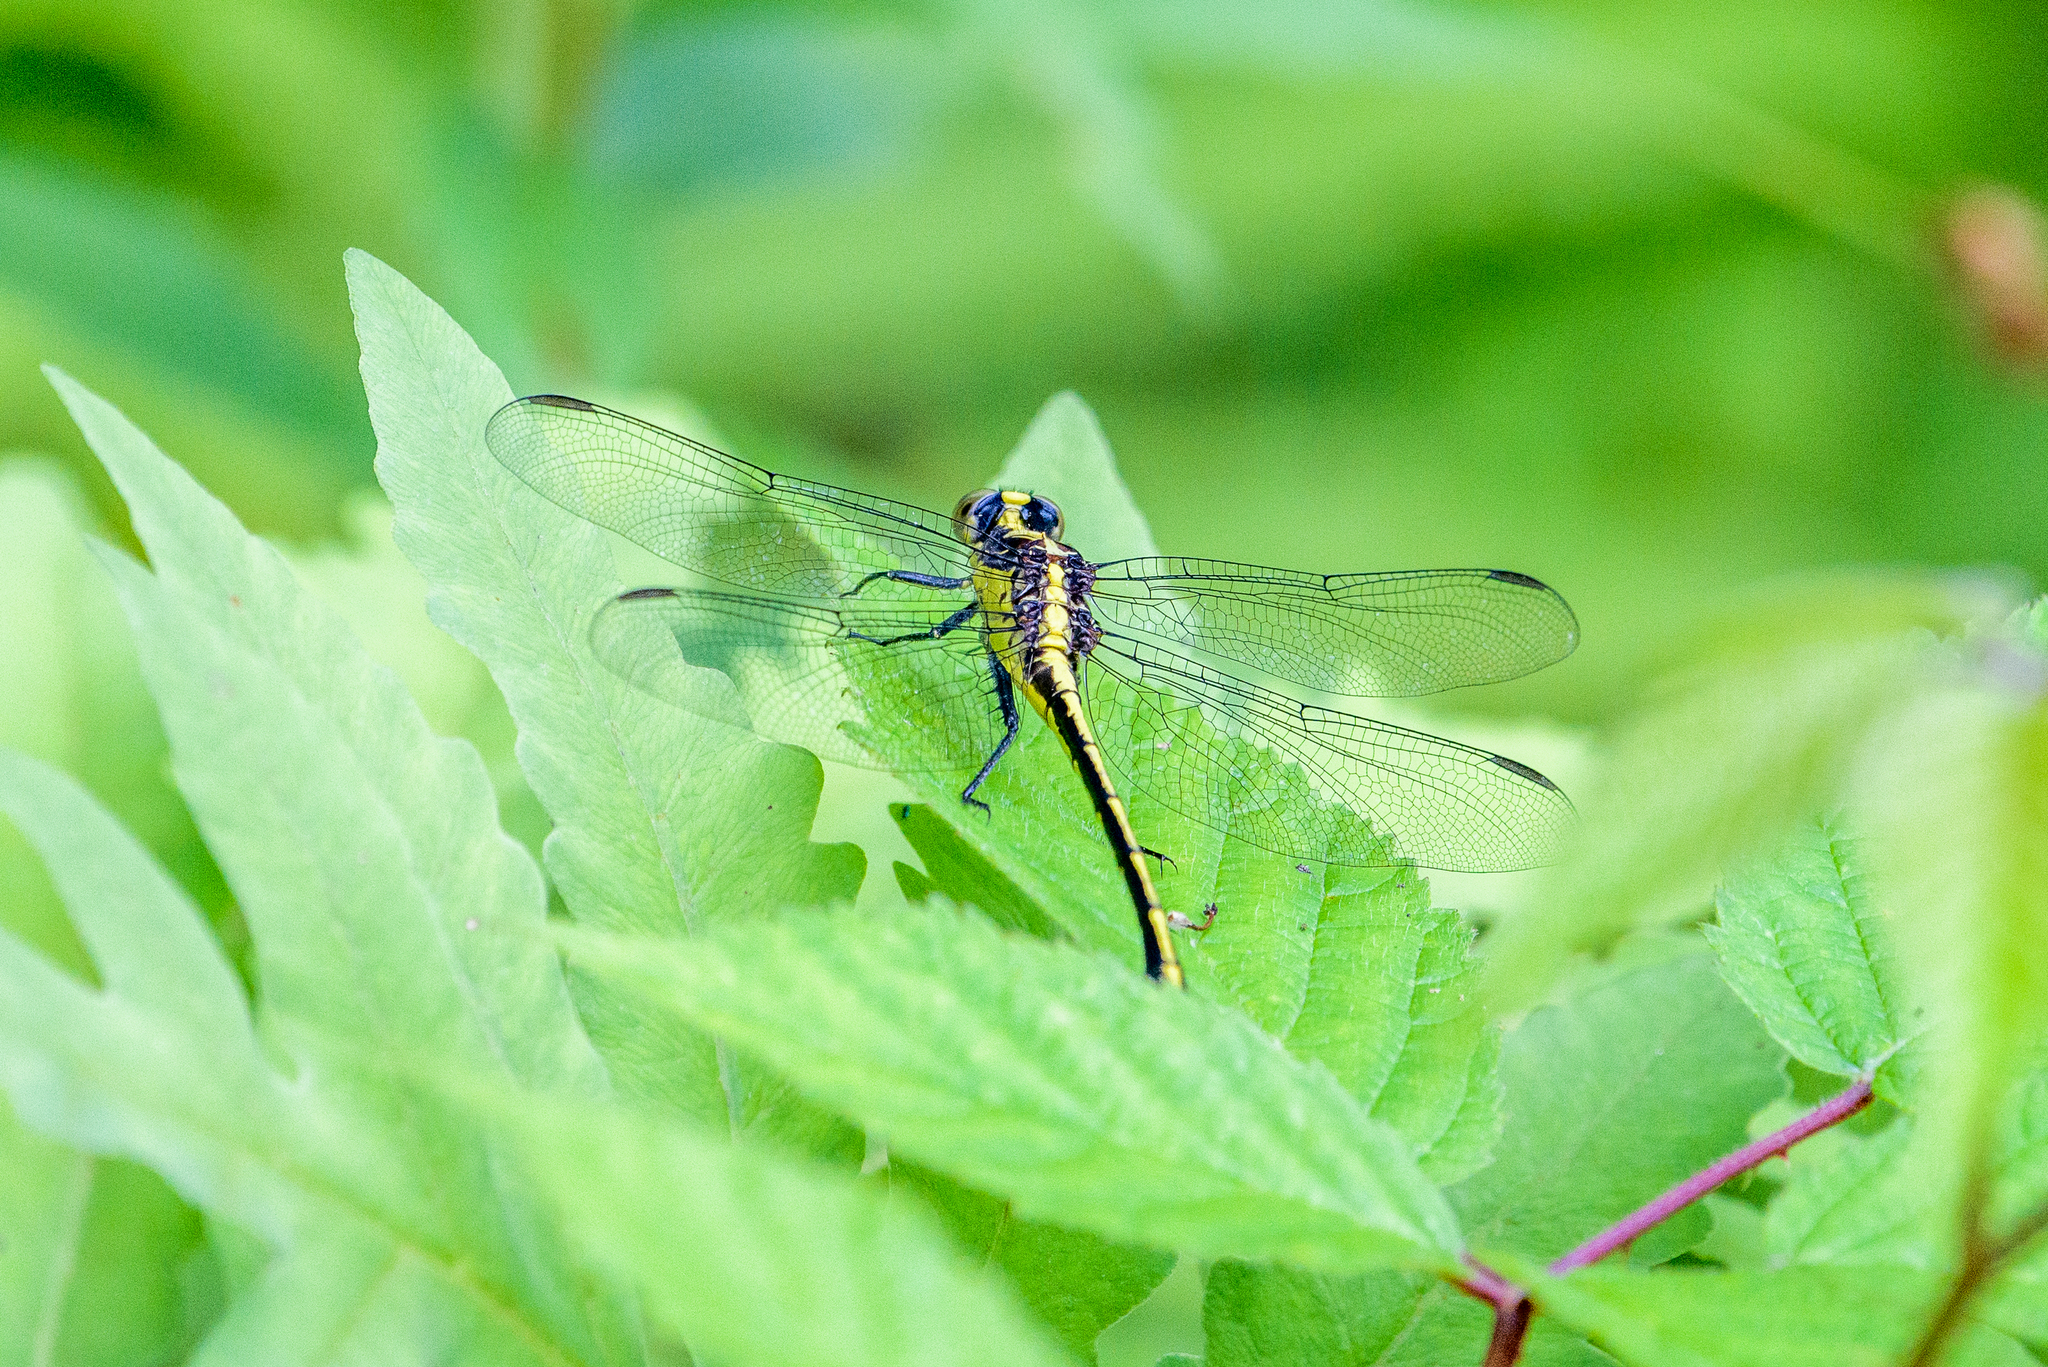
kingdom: Animalia
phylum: Arthropoda
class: Insecta
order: Odonata
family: Gomphidae
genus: Dromogomphus
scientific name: Dromogomphus spinosus
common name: Black-shouldered spinyleg
